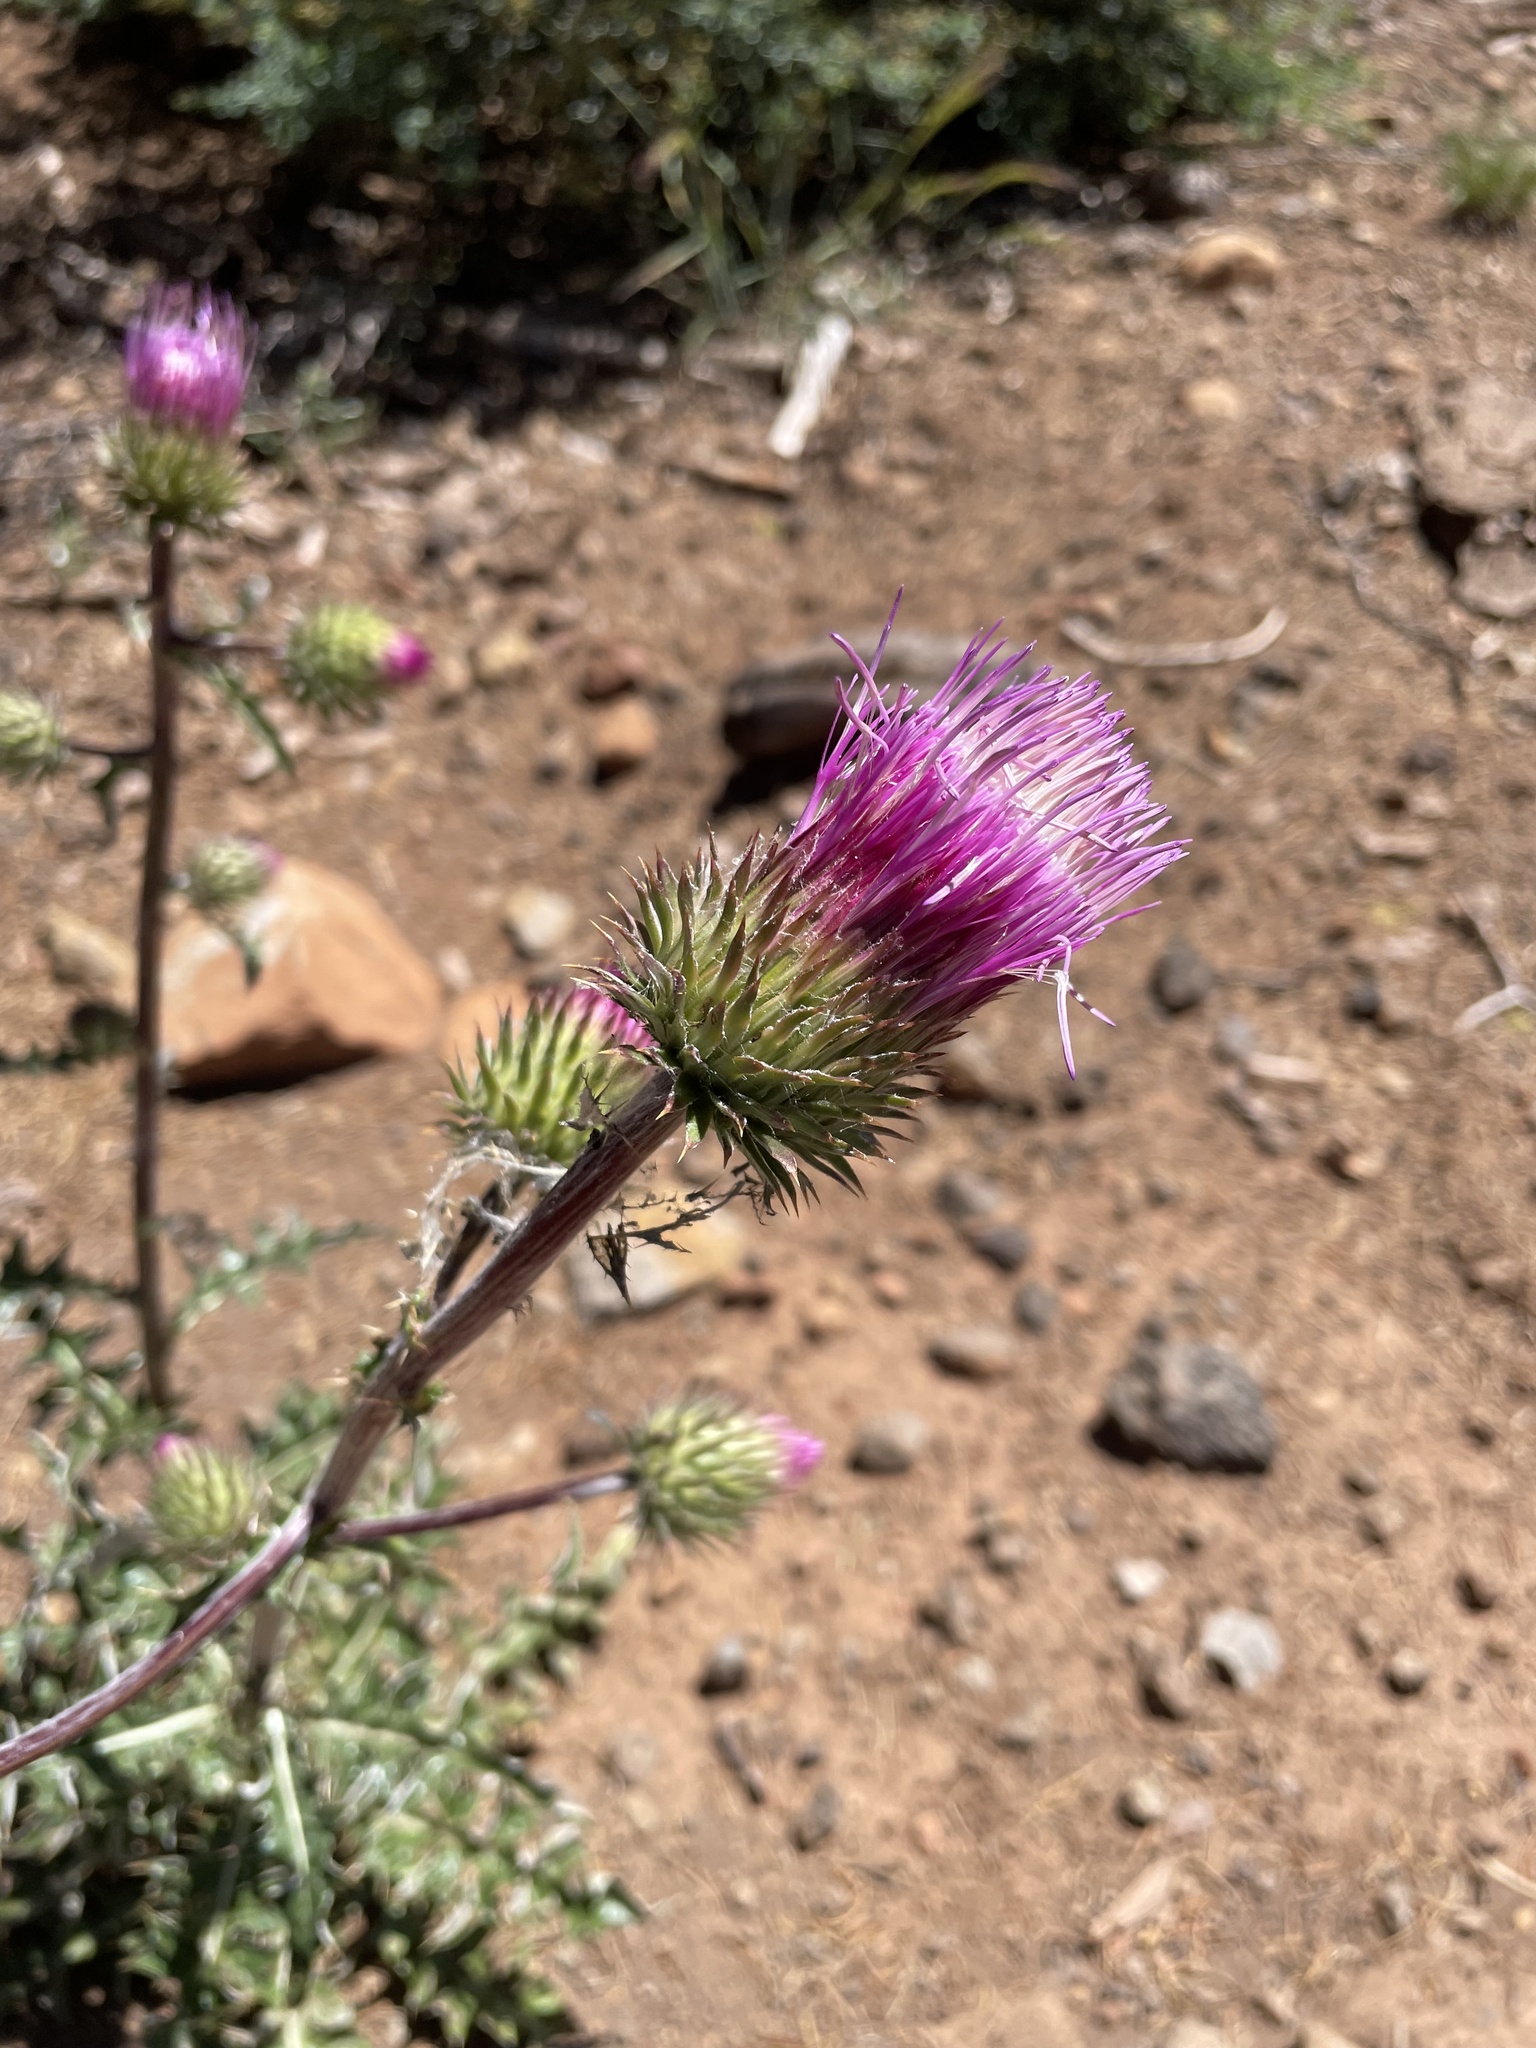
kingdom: Plantae
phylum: Tracheophyta
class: Magnoliopsida
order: Asterales
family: Asteraceae
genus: Cirsium
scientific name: Cirsium andersonii
